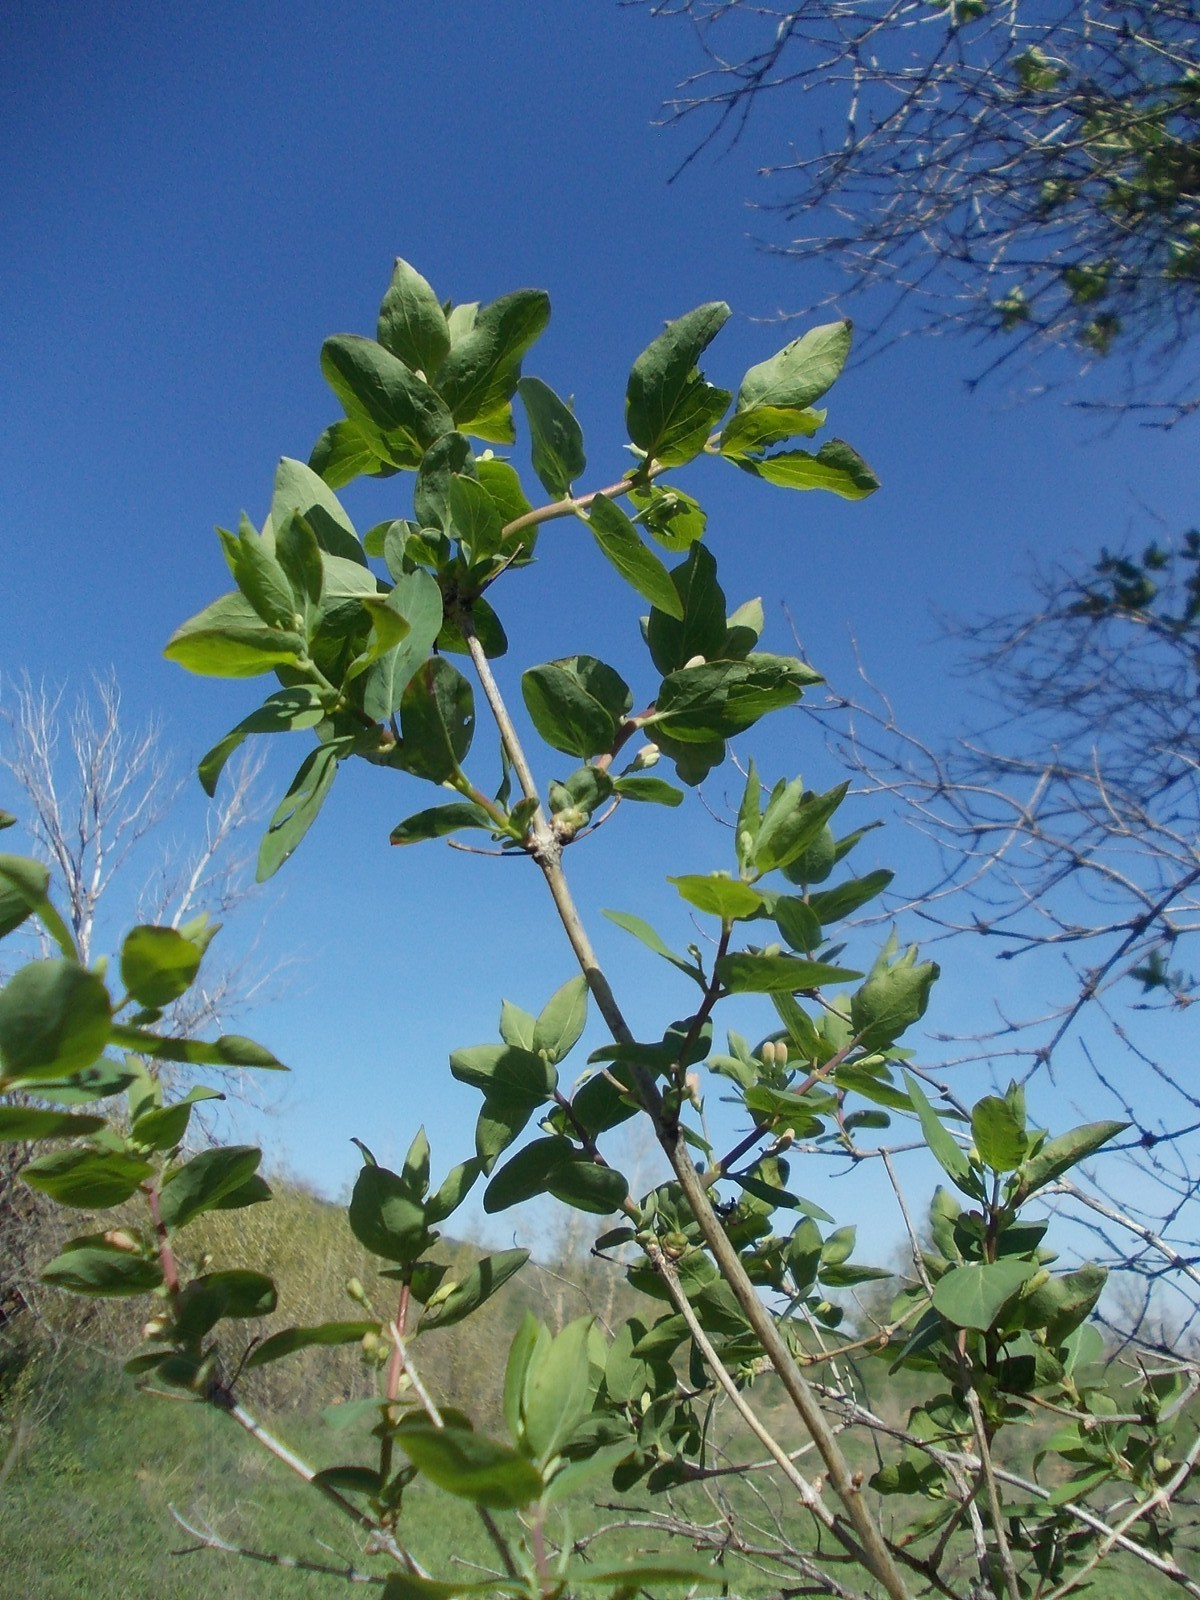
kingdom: Plantae
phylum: Tracheophyta
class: Magnoliopsida
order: Dipsacales
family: Caprifoliaceae
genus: Lonicera
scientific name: Lonicera tatarica
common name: Tatarian honeysuckle
